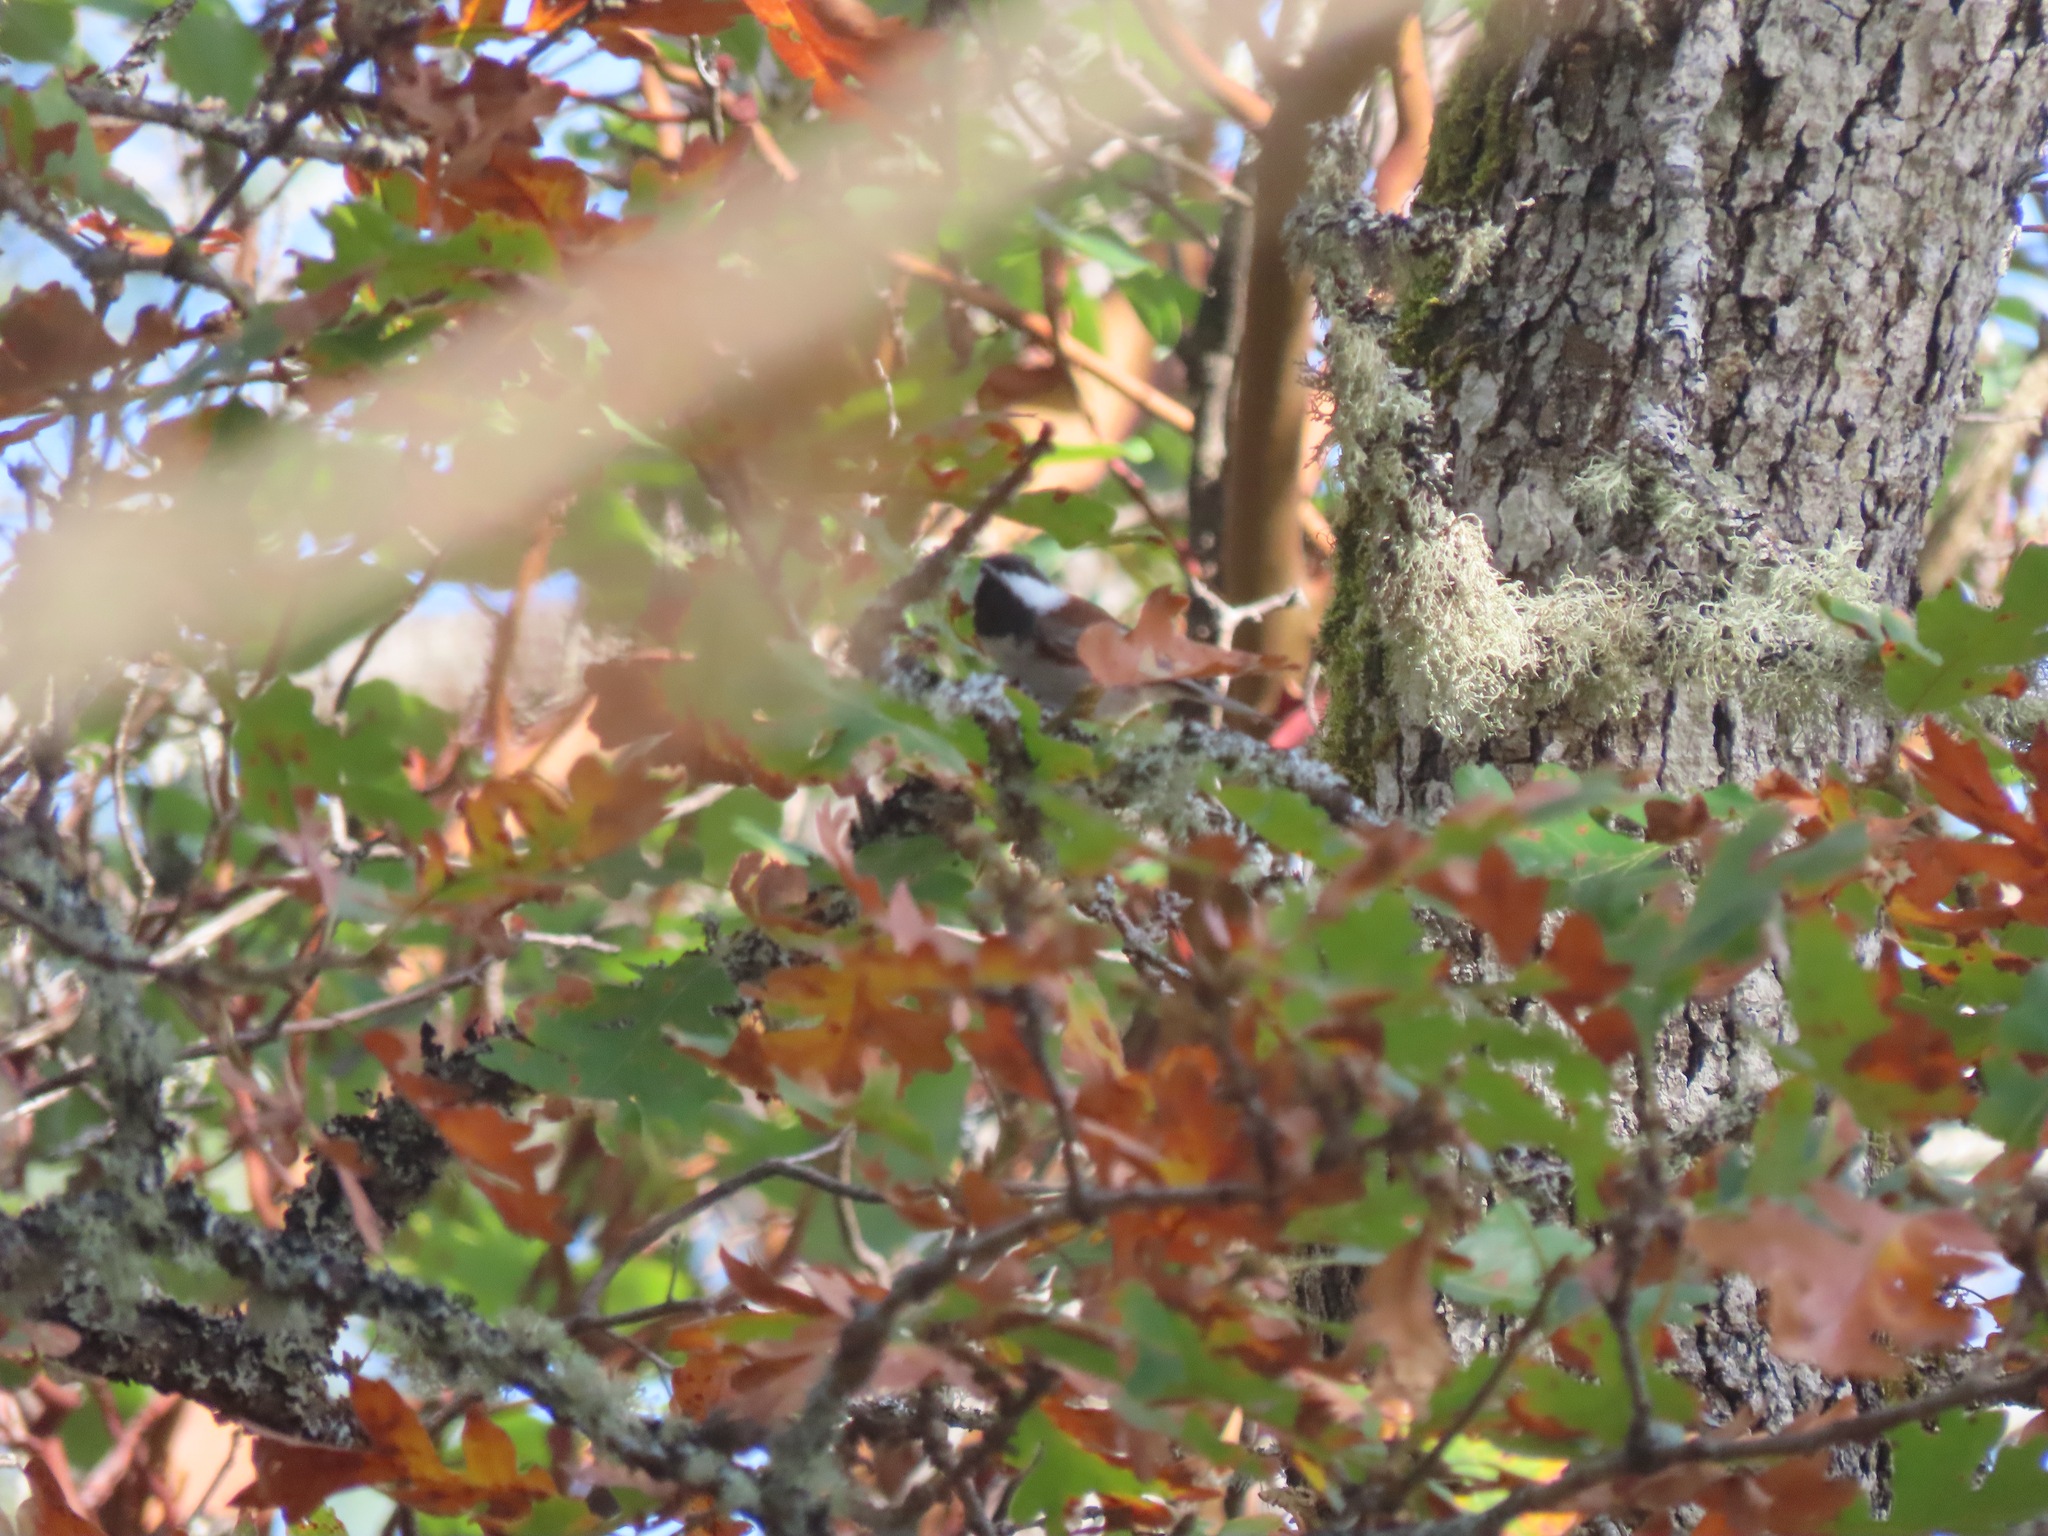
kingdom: Animalia
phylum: Chordata
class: Aves
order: Passeriformes
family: Paridae
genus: Poecile
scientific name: Poecile rufescens
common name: Chestnut-backed chickadee
